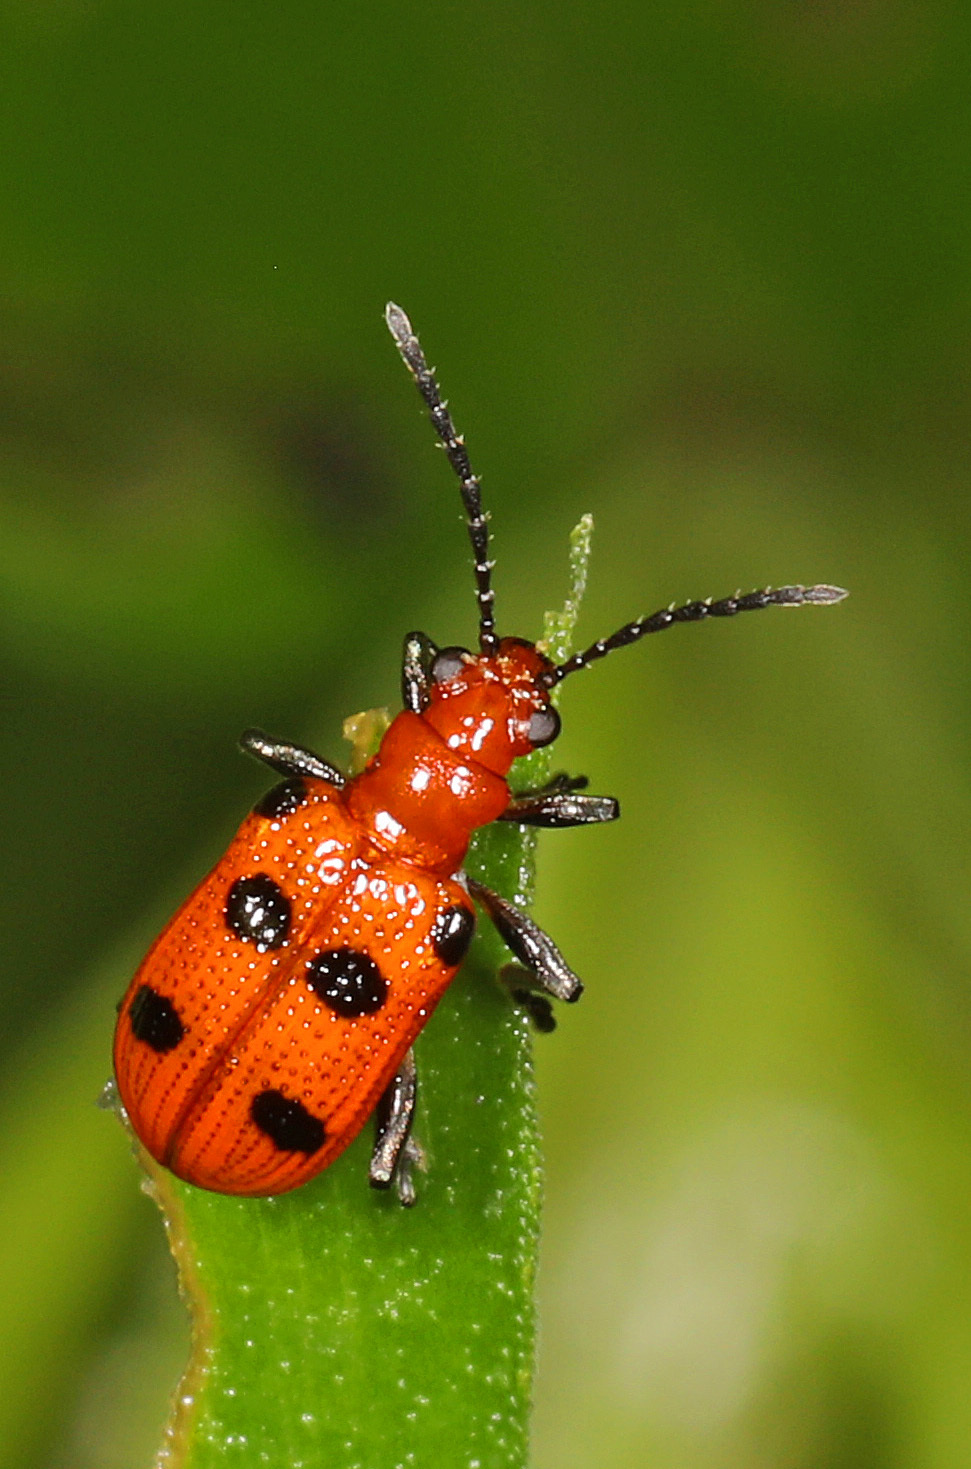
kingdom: Animalia
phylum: Arthropoda
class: Insecta
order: Coleoptera
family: Chrysomelidae
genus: Neolema
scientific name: Neolema sexpunctata
